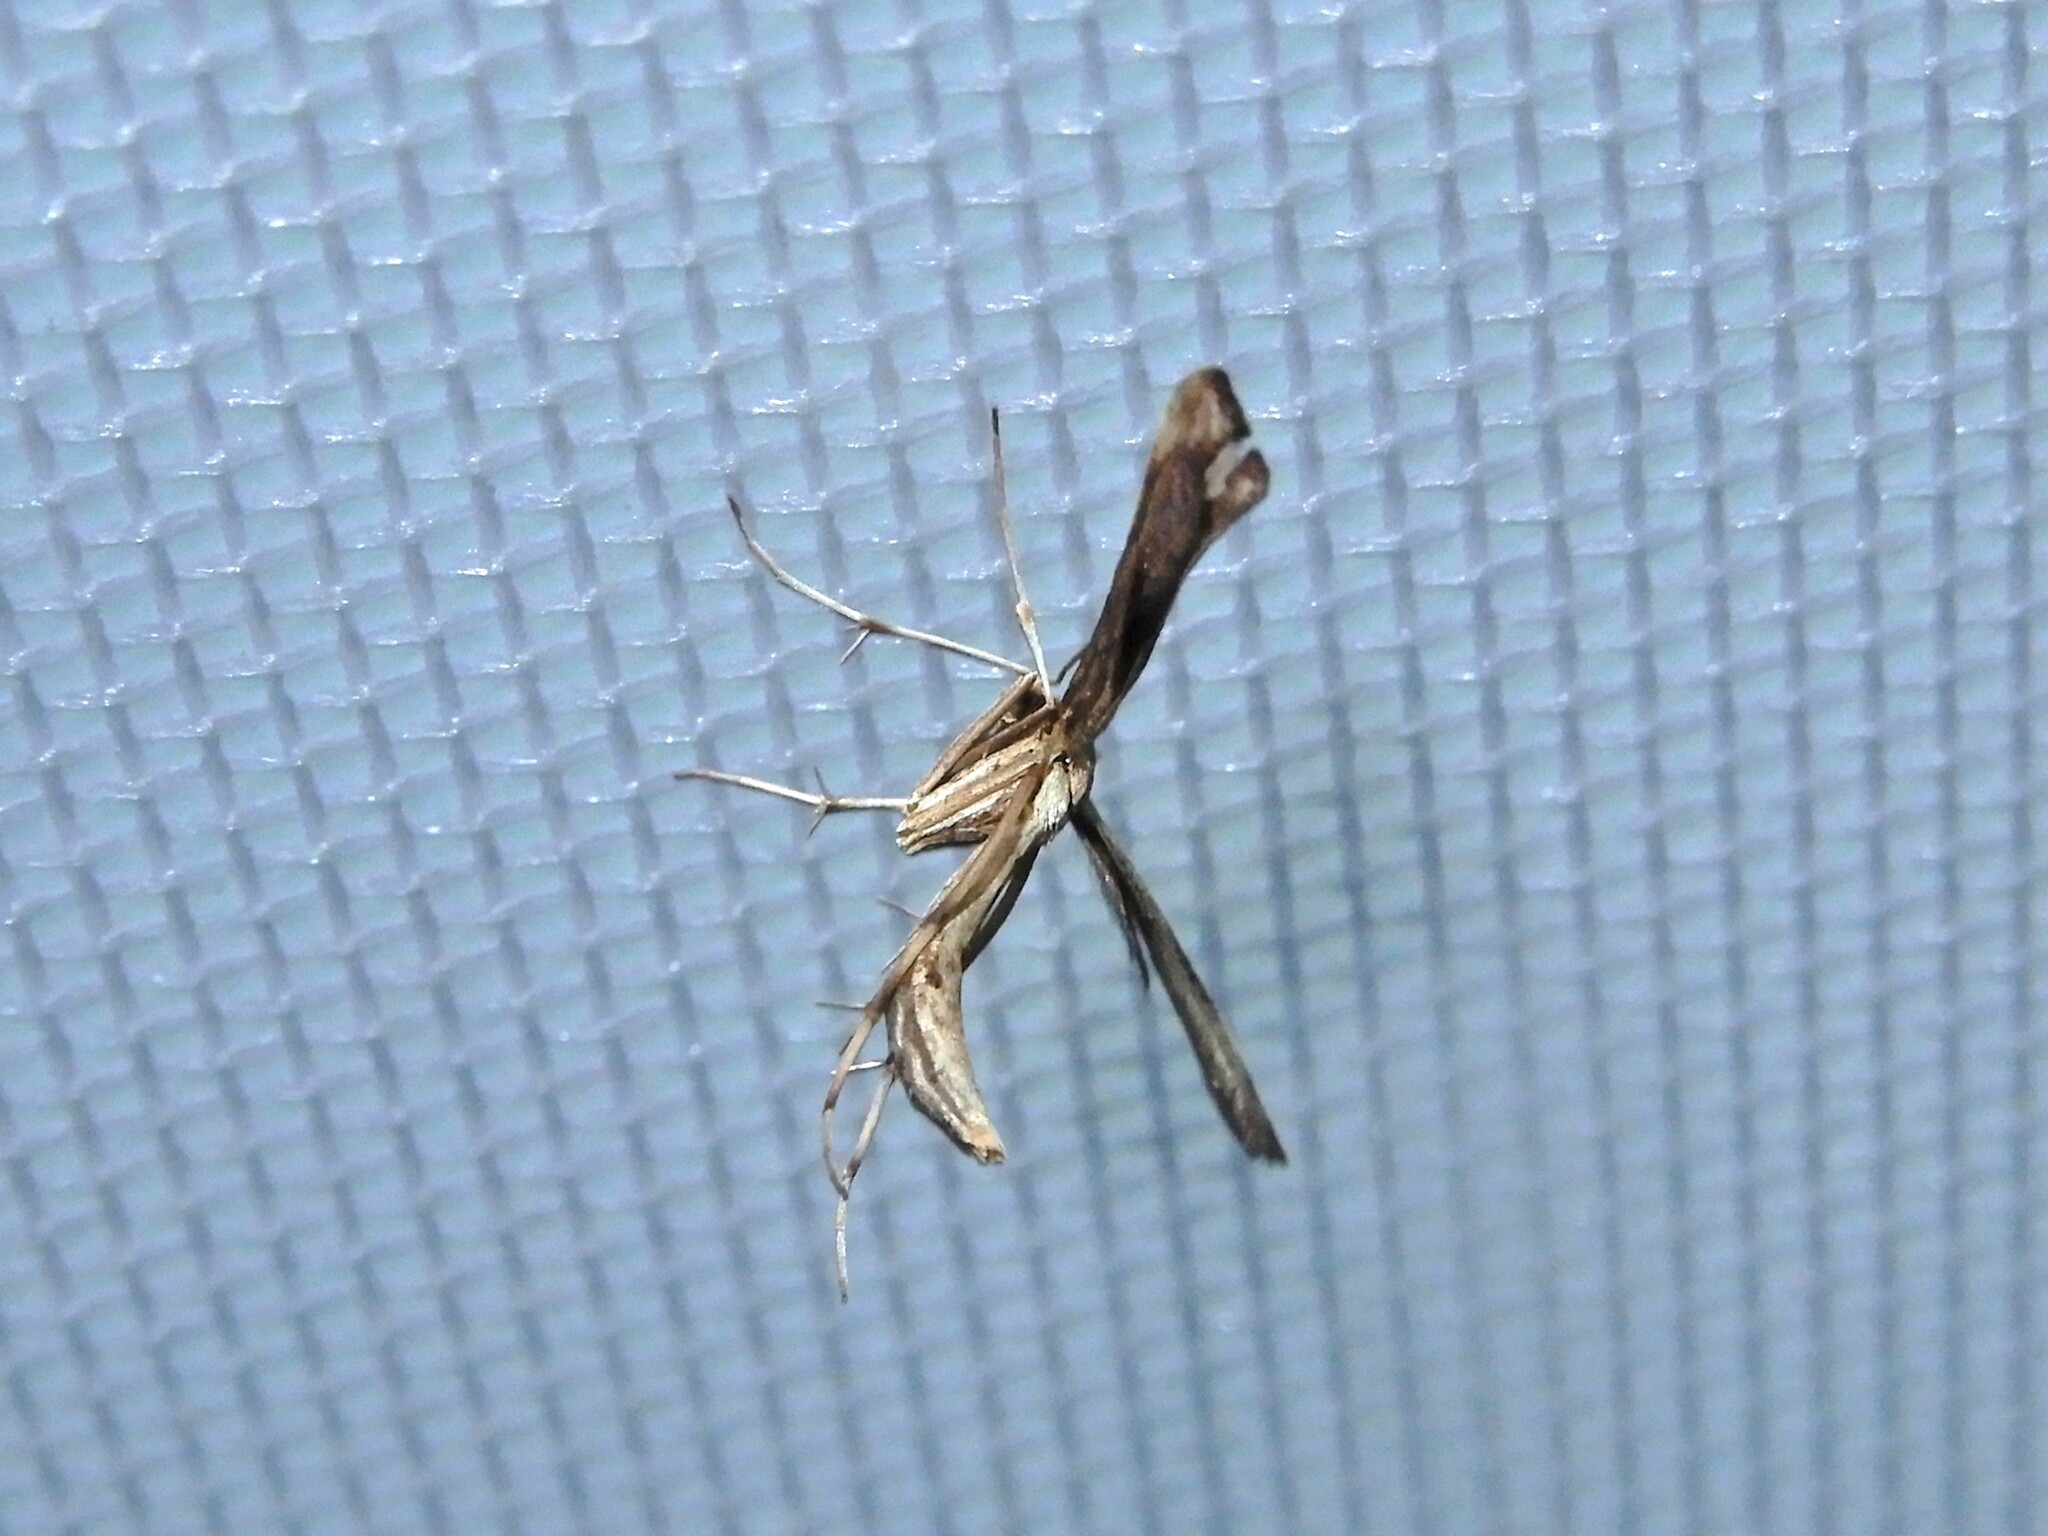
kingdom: Animalia
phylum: Arthropoda
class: Insecta
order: Lepidoptera
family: Pterophoridae
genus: Platyptilia
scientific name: Platyptilia isodactylus
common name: Hoary plume
